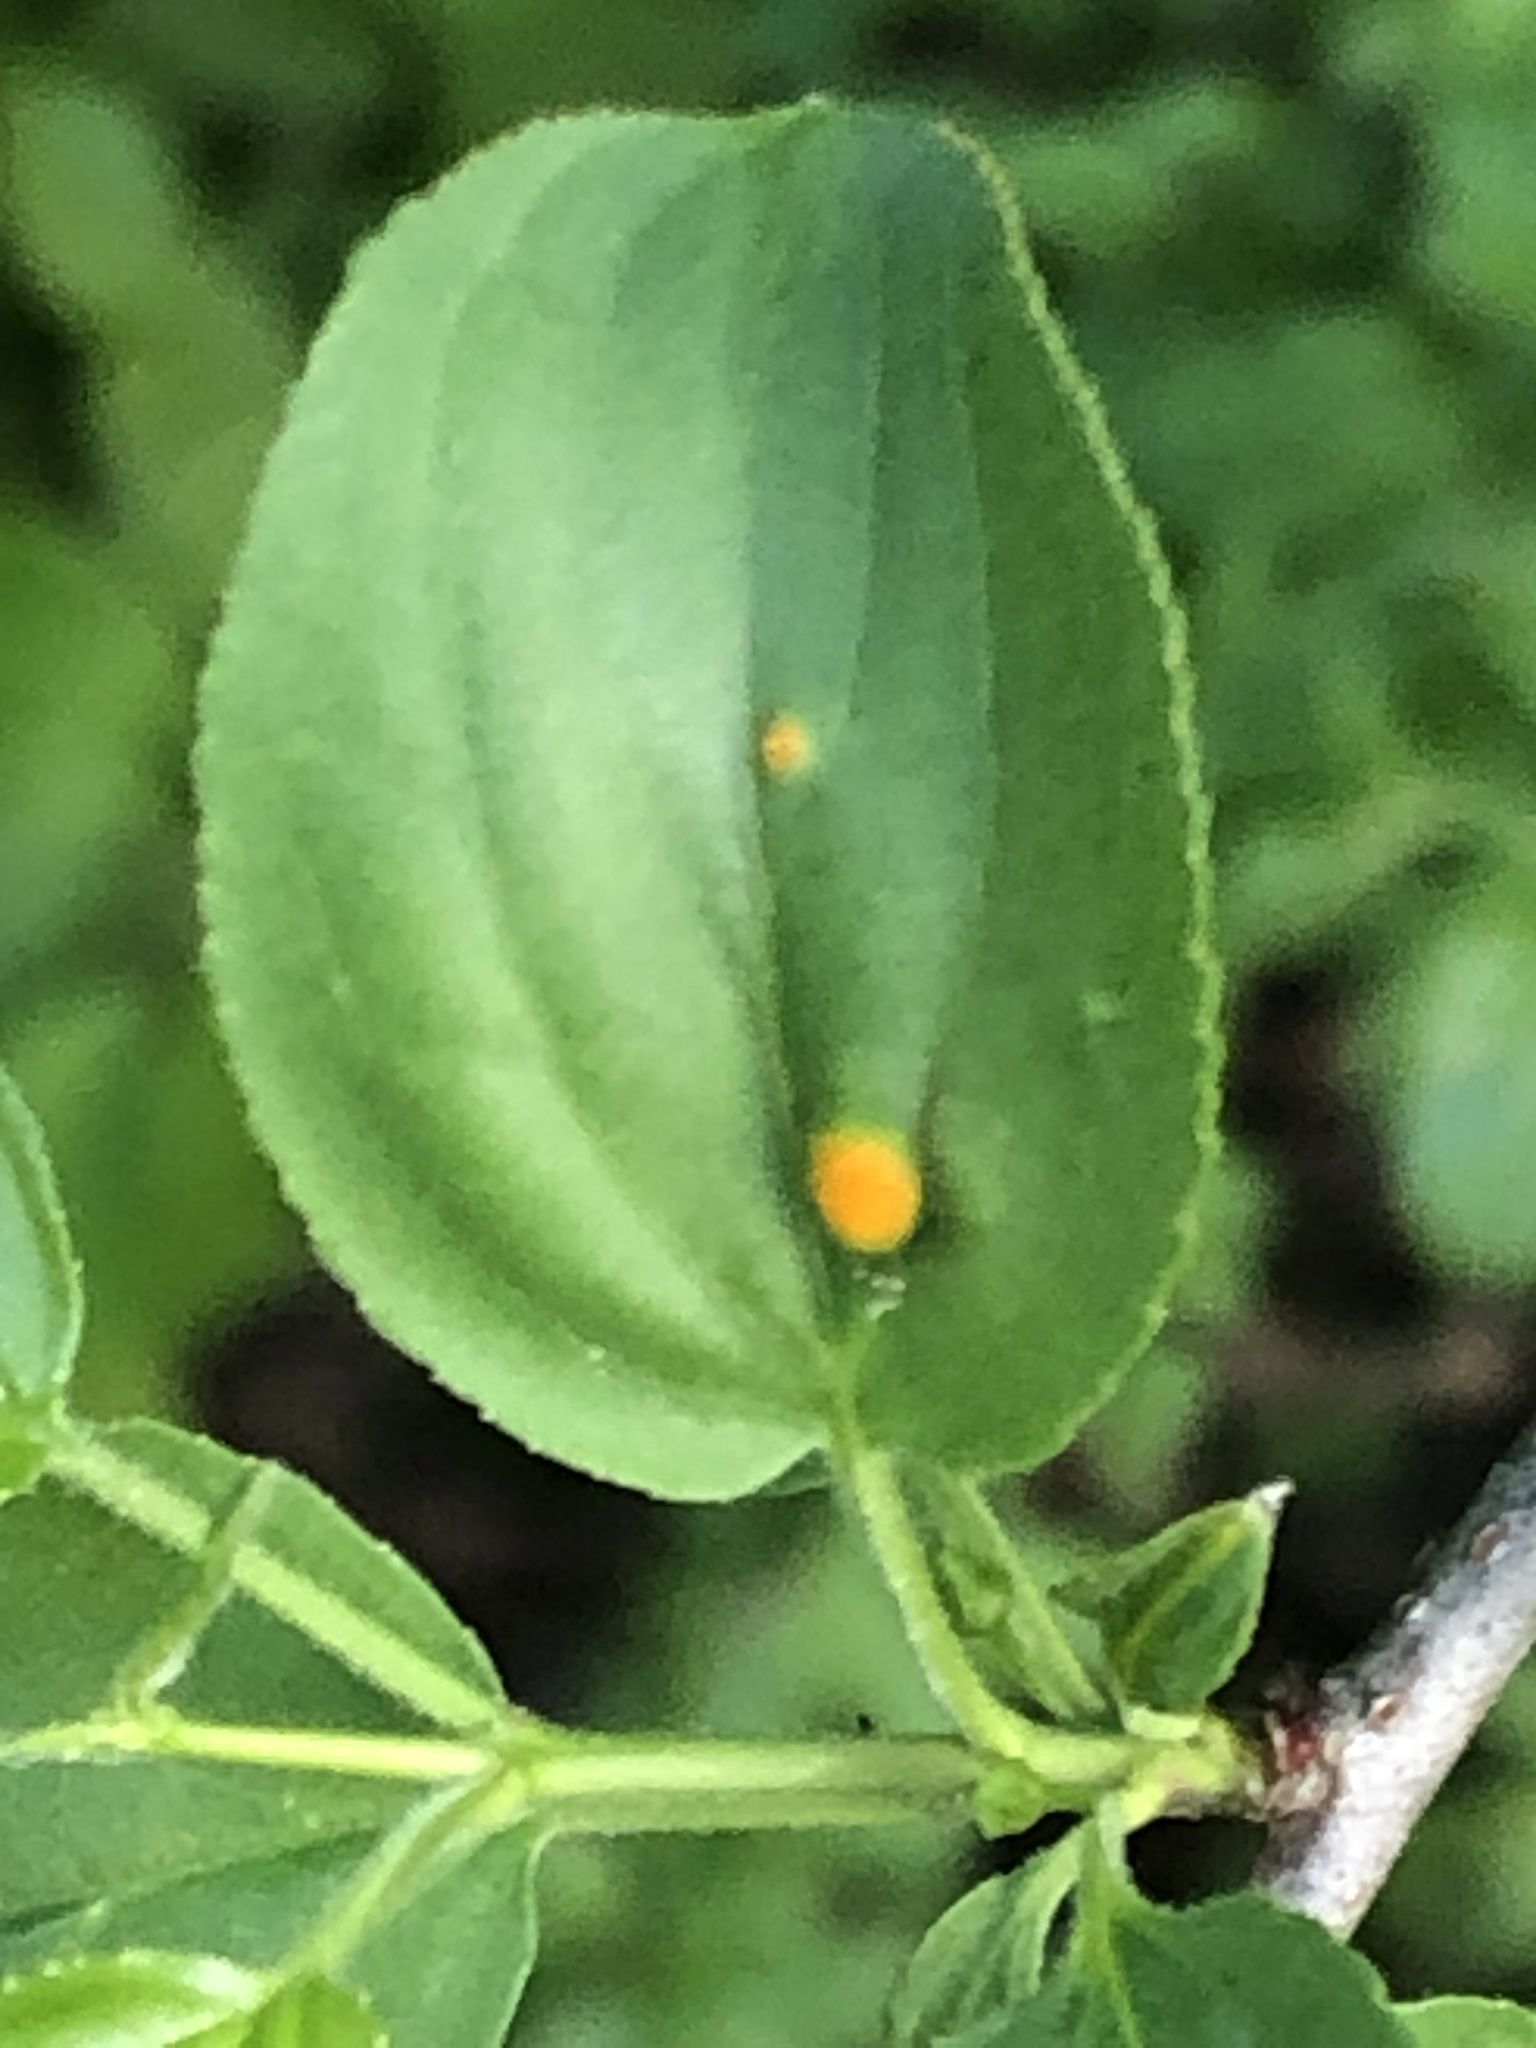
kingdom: Fungi
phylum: Basidiomycota
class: Pucciniomycetes
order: Pucciniales
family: Pucciniaceae
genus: Puccinia
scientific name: Puccinia coronata
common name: Crown rust
